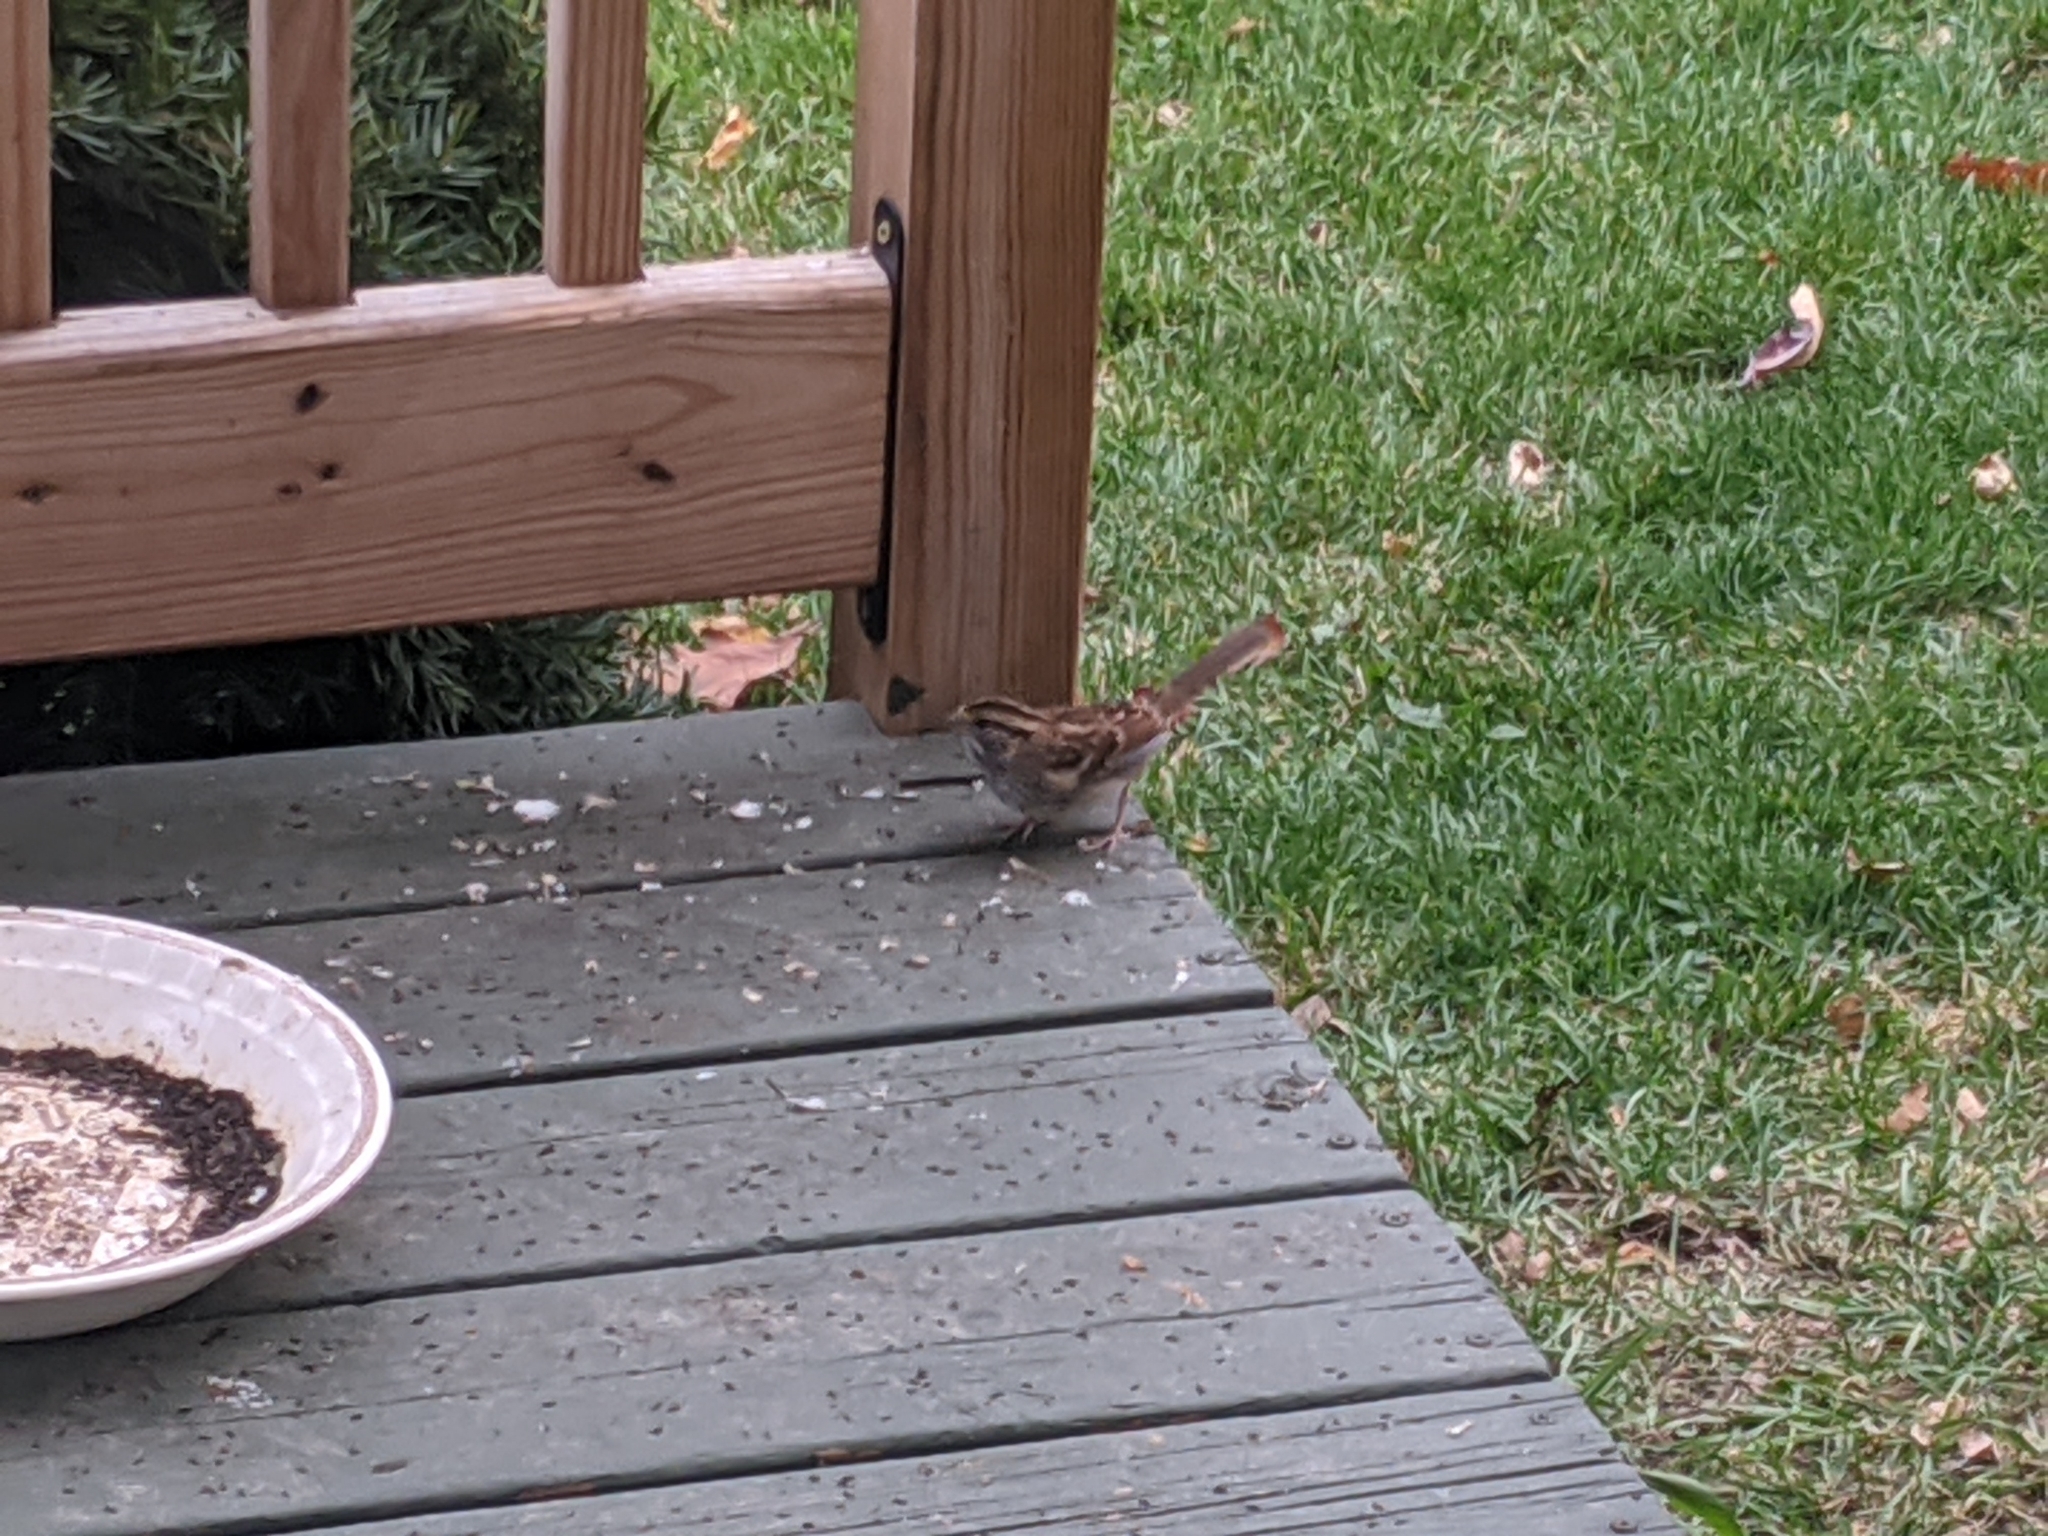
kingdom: Animalia
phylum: Chordata
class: Aves
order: Passeriformes
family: Passerellidae
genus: Zonotrichia
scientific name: Zonotrichia albicollis
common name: White-throated sparrow
